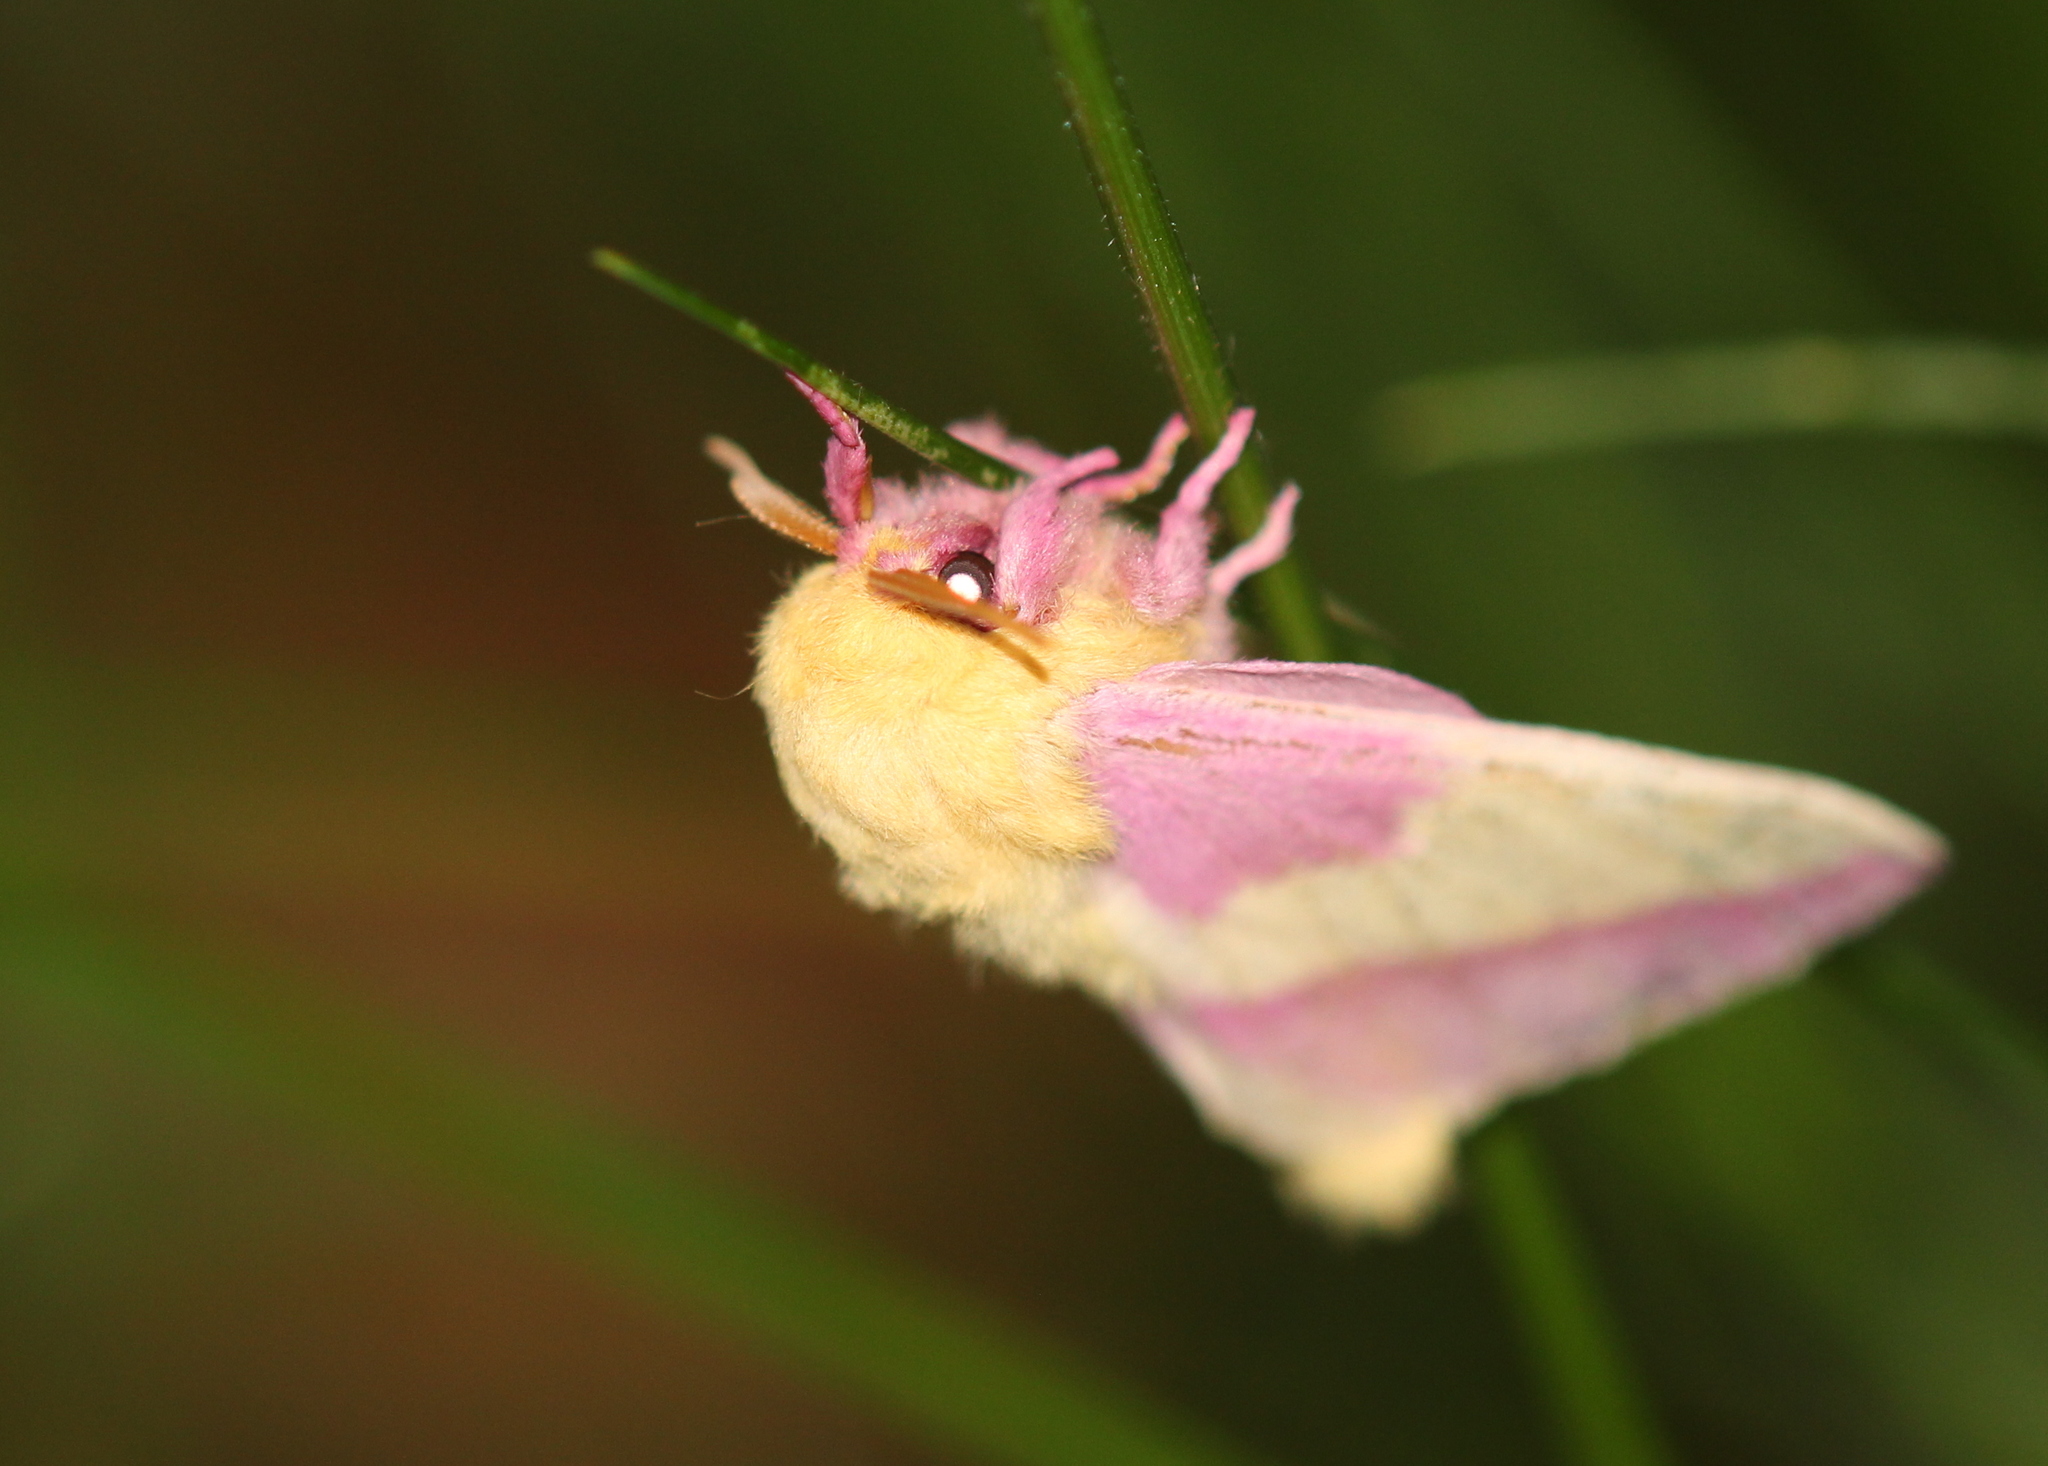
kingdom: Animalia
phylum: Arthropoda
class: Insecta
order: Lepidoptera
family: Saturniidae
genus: Dryocampa
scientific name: Dryocampa rubicunda
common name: Rosy maple moth
